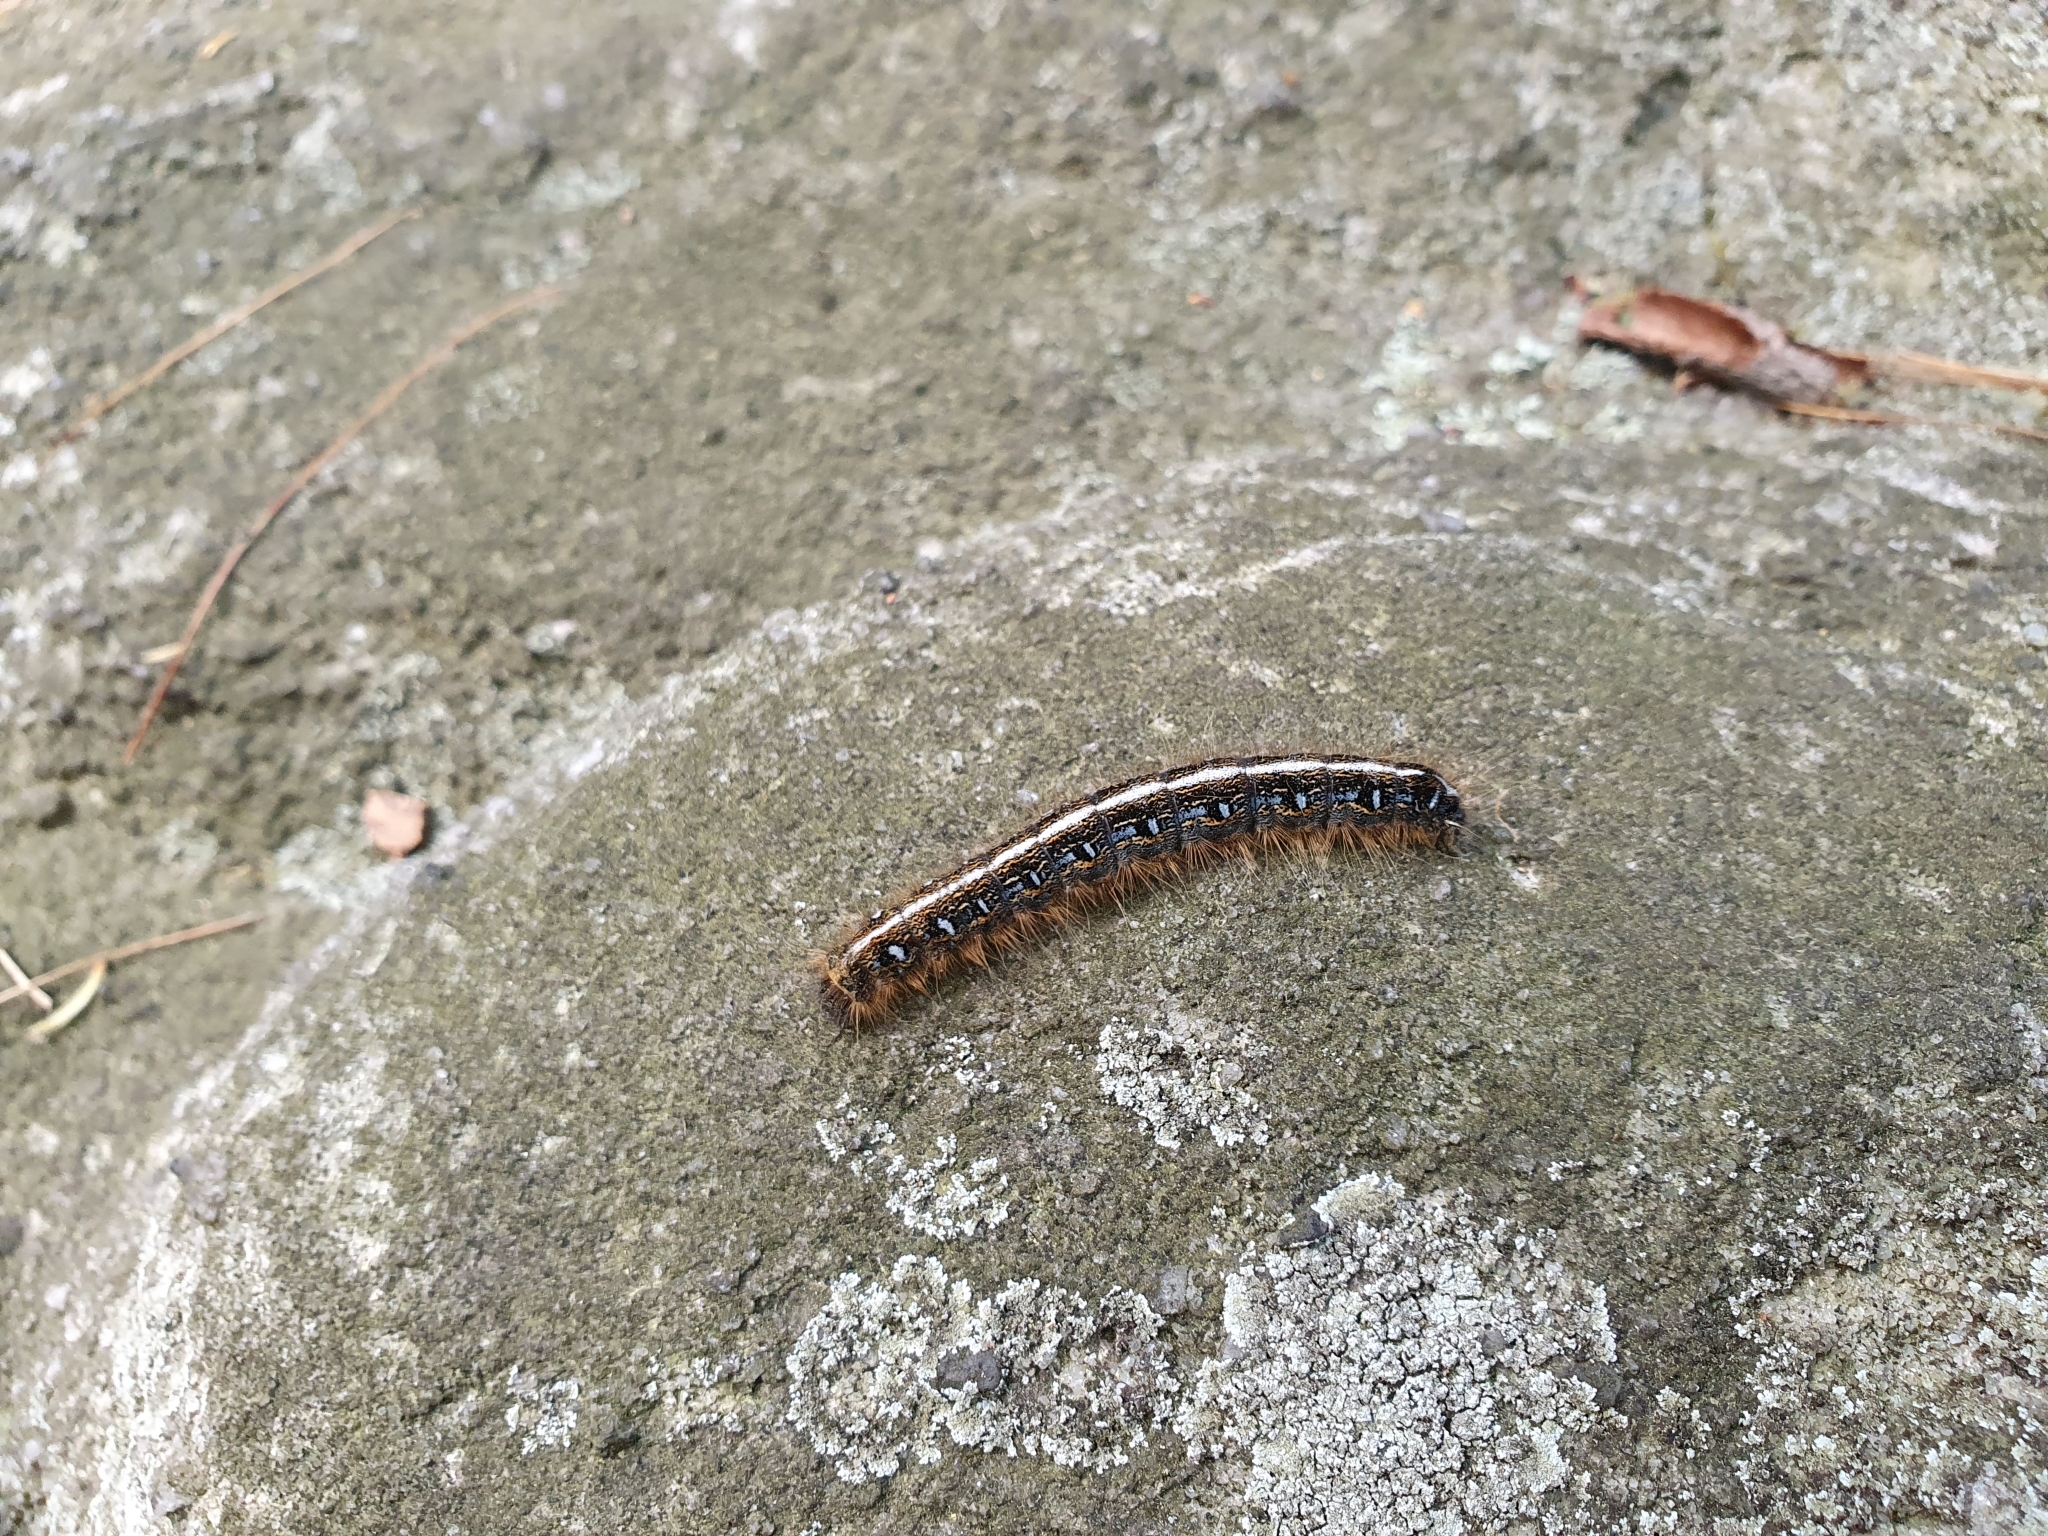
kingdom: Animalia
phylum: Arthropoda
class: Insecta
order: Lepidoptera
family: Lasiocampidae
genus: Malacosoma
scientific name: Malacosoma americana
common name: Eastern tent caterpillar moth
